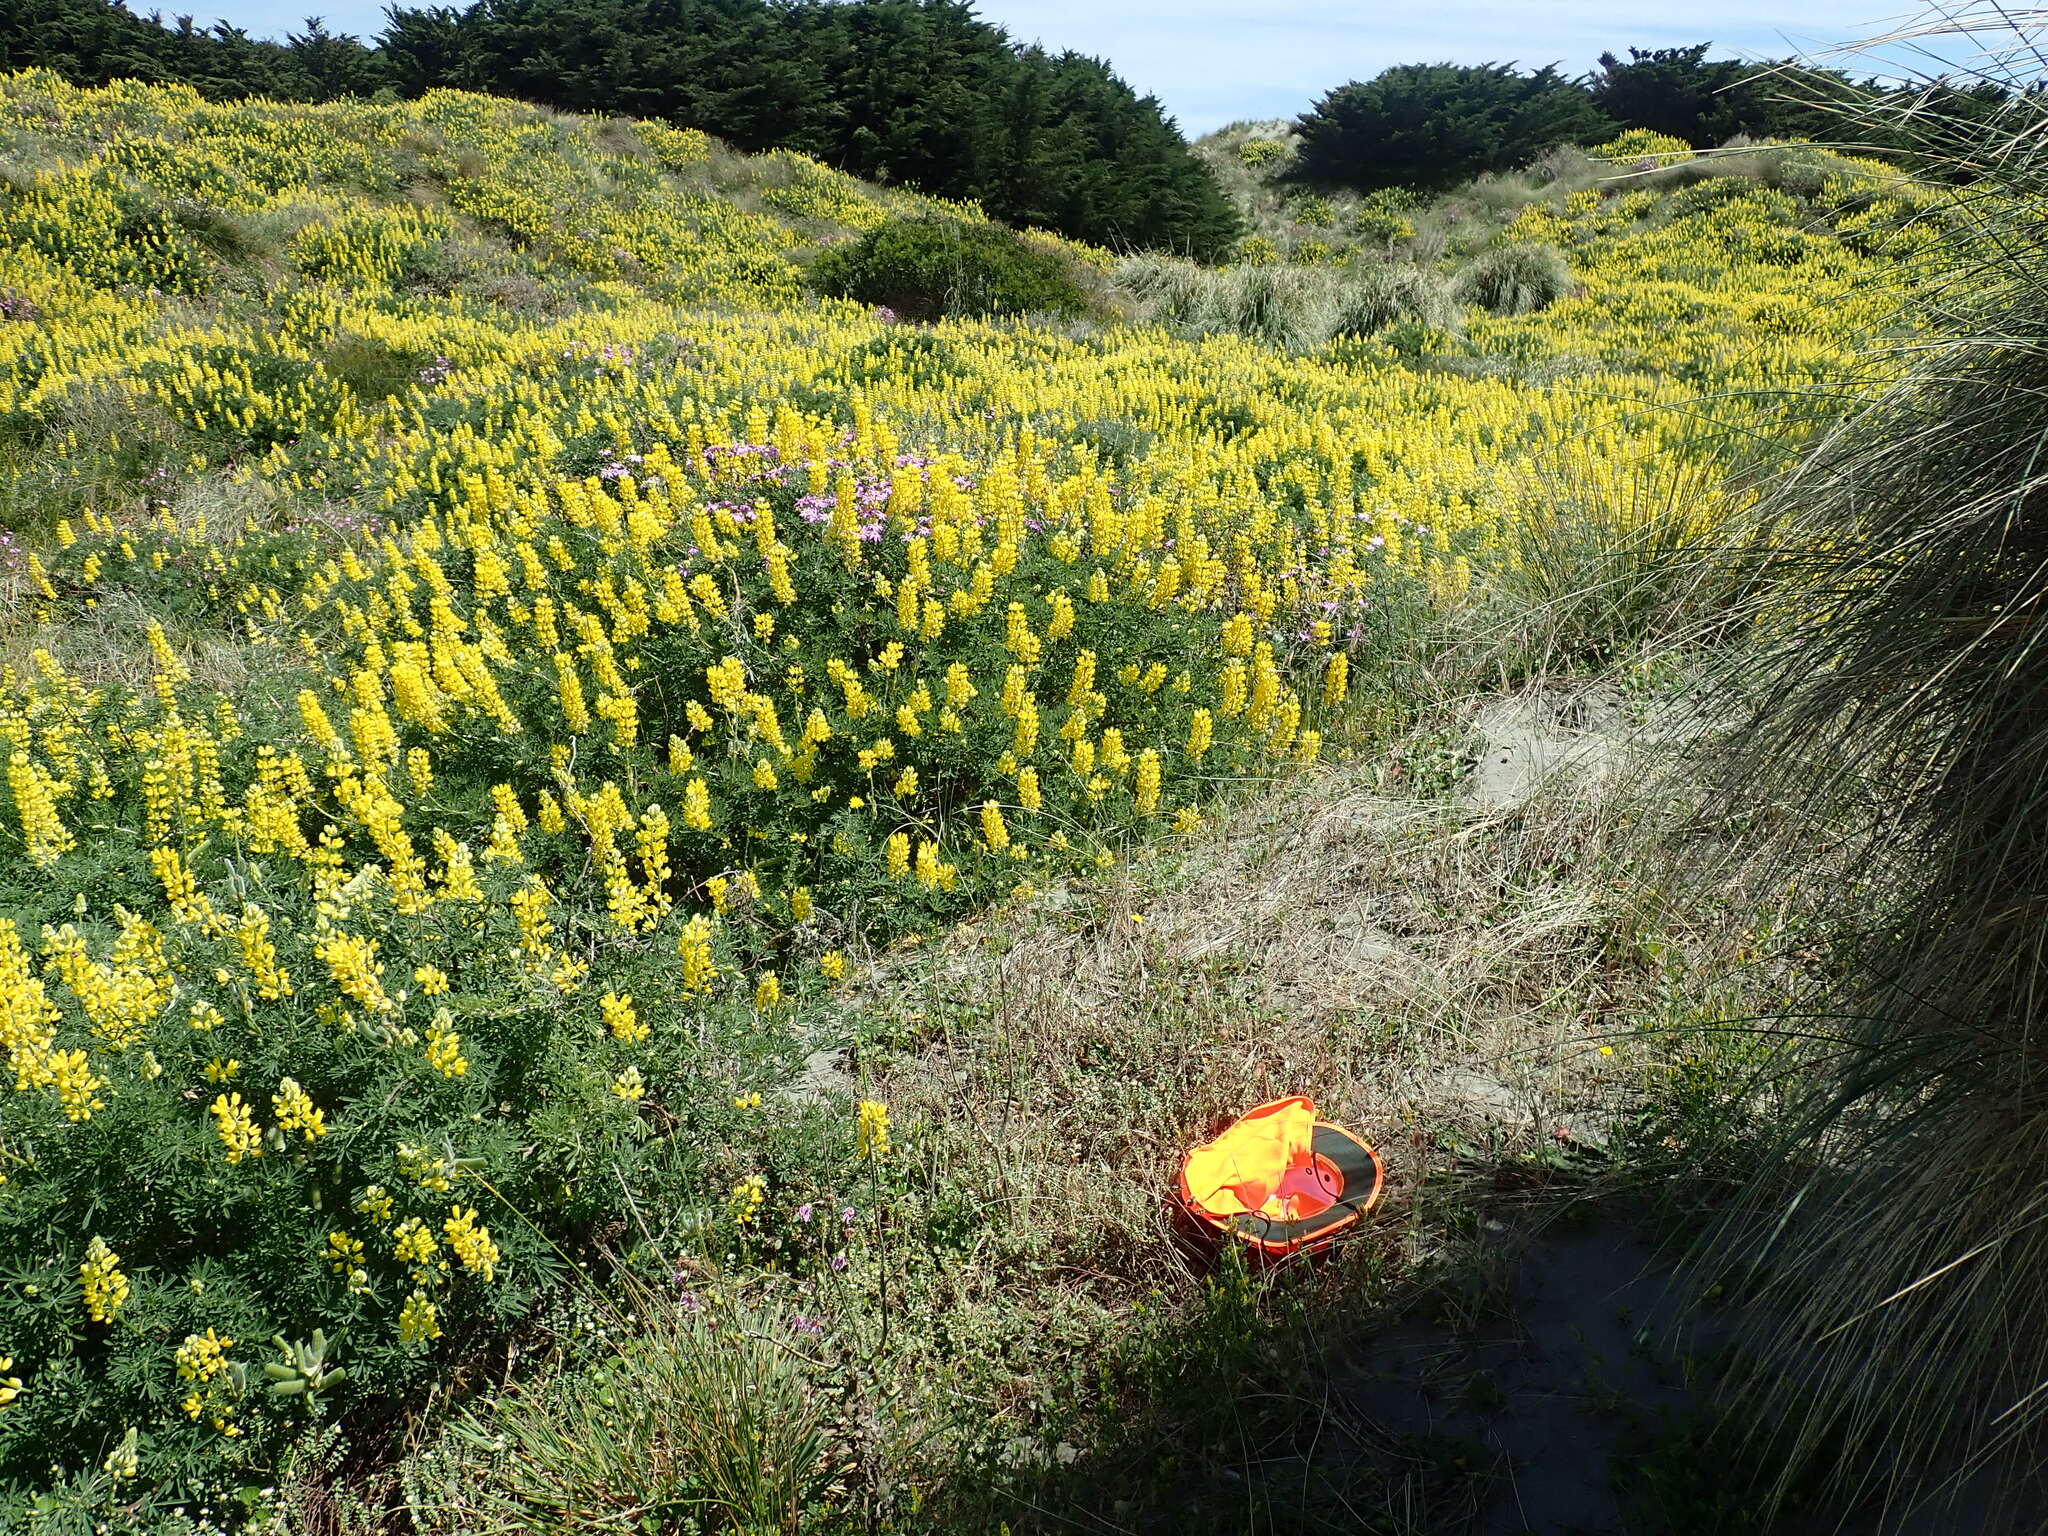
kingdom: Animalia
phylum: Arthropoda
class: Arachnida
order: Araneae
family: Theridiidae
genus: Latrodectus
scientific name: Latrodectus katipo
